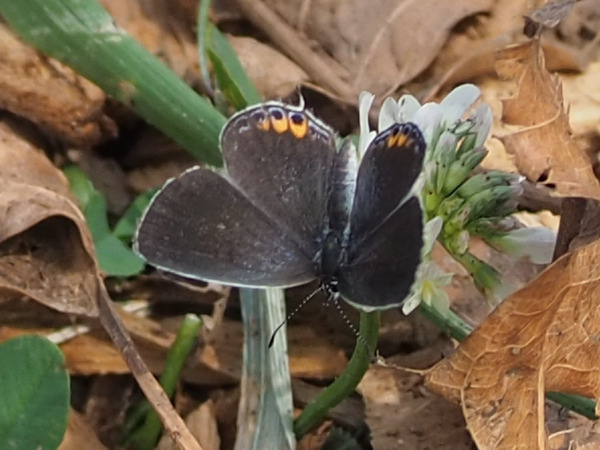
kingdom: Animalia
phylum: Arthropoda
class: Insecta
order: Lepidoptera
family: Lycaenidae
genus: Elkalyce
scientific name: Elkalyce comyntas
